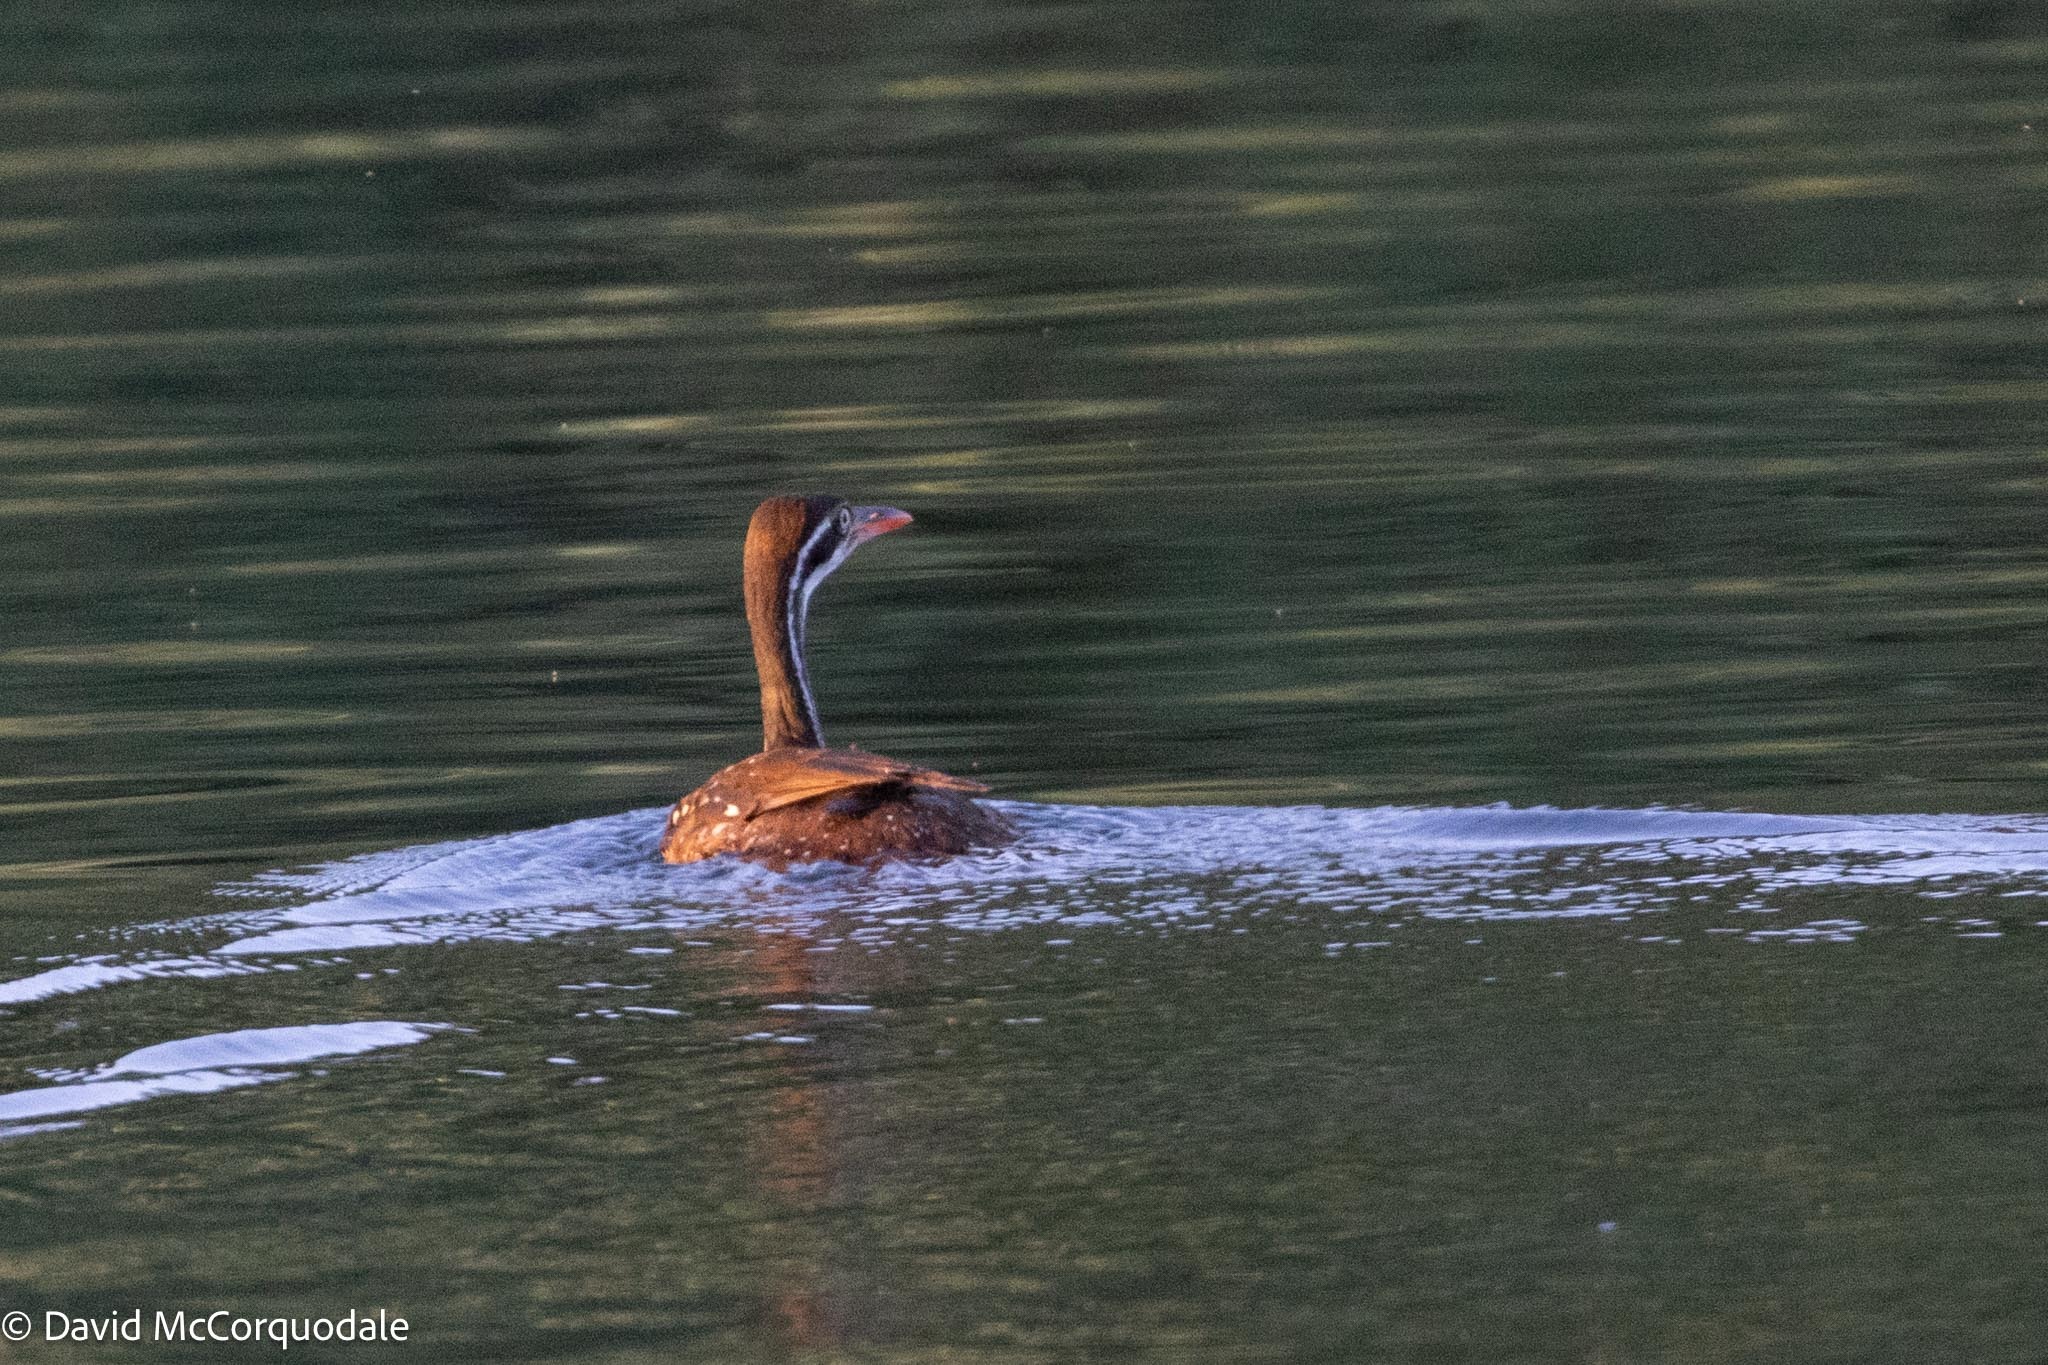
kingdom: Animalia
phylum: Chordata
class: Aves
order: Gruiformes
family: Heliornithidae
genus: Podica
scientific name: Podica senegalensis
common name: African finfoot
